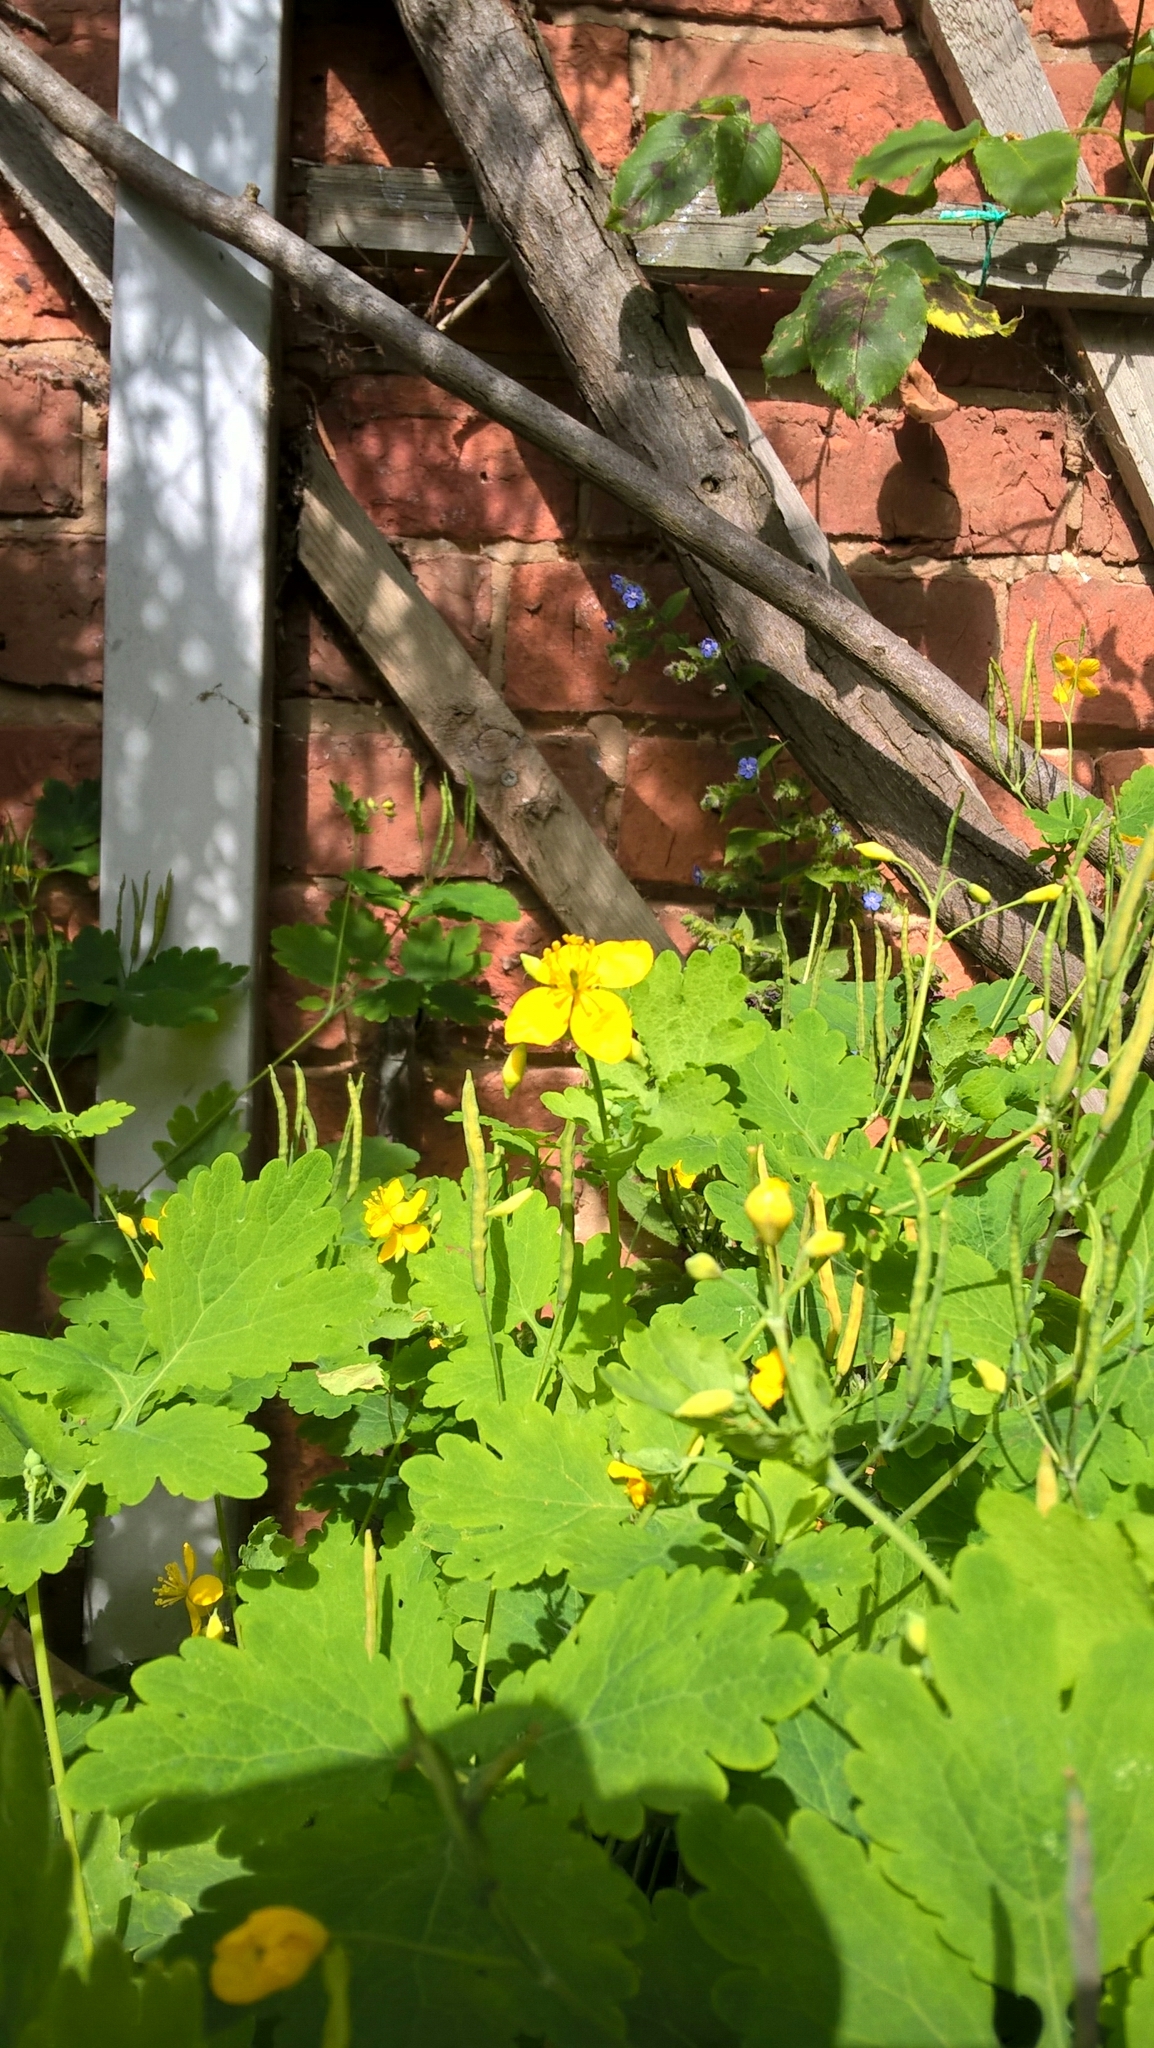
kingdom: Plantae
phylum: Tracheophyta
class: Magnoliopsida
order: Ranunculales
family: Papaveraceae
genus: Chelidonium
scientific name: Chelidonium majus
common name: Greater celandine
